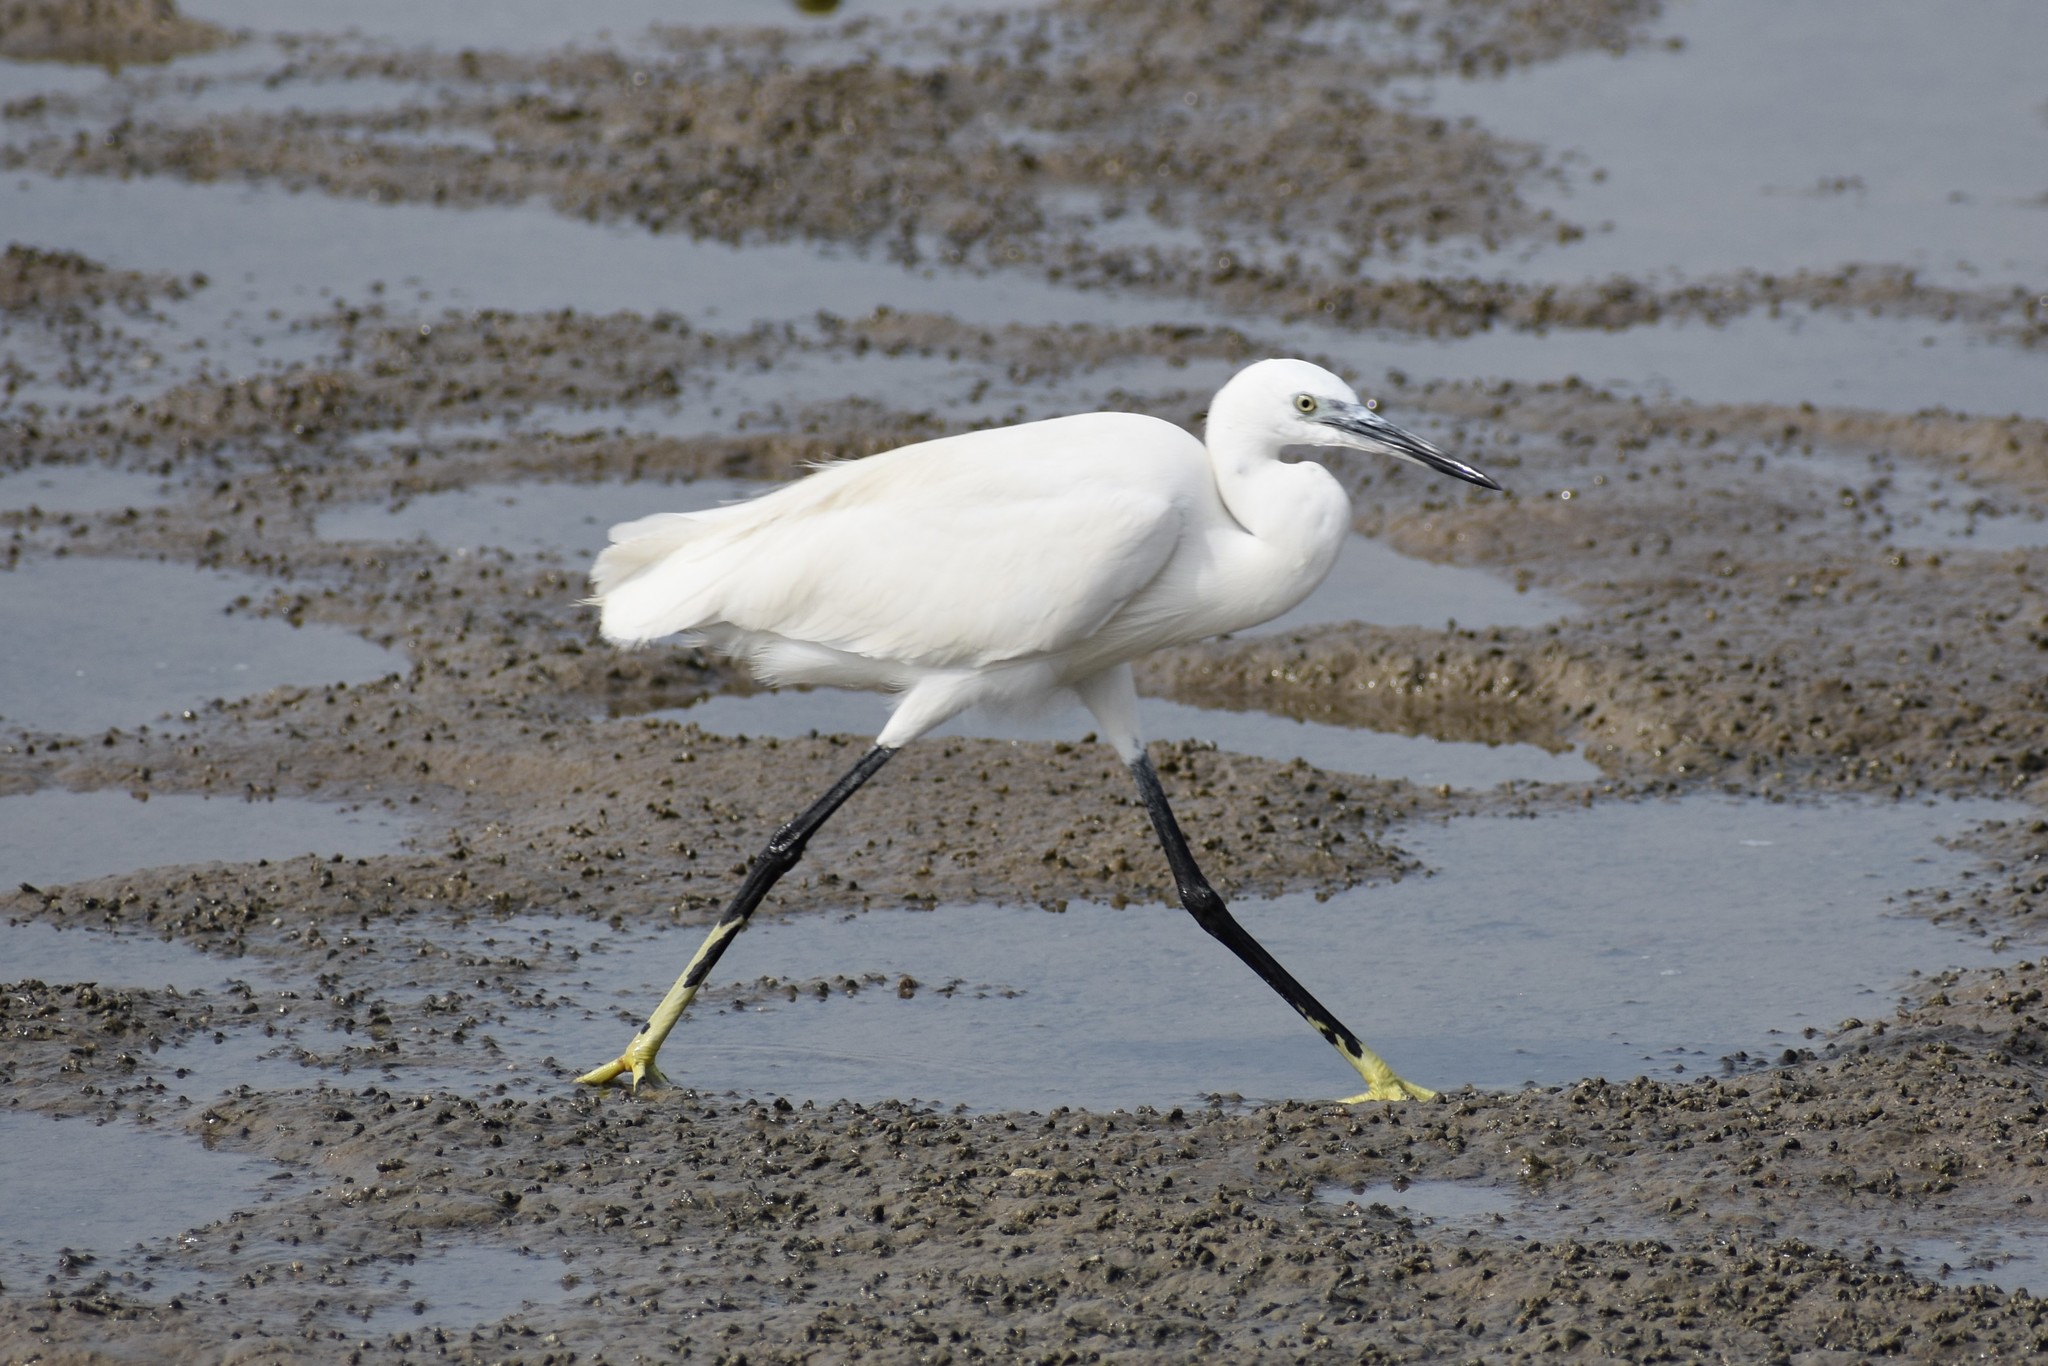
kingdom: Animalia
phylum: Chordata
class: Aves
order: Pelecaniformes
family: Ardeidae
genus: Egretta
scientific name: Egretta garzetta
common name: Little egret
